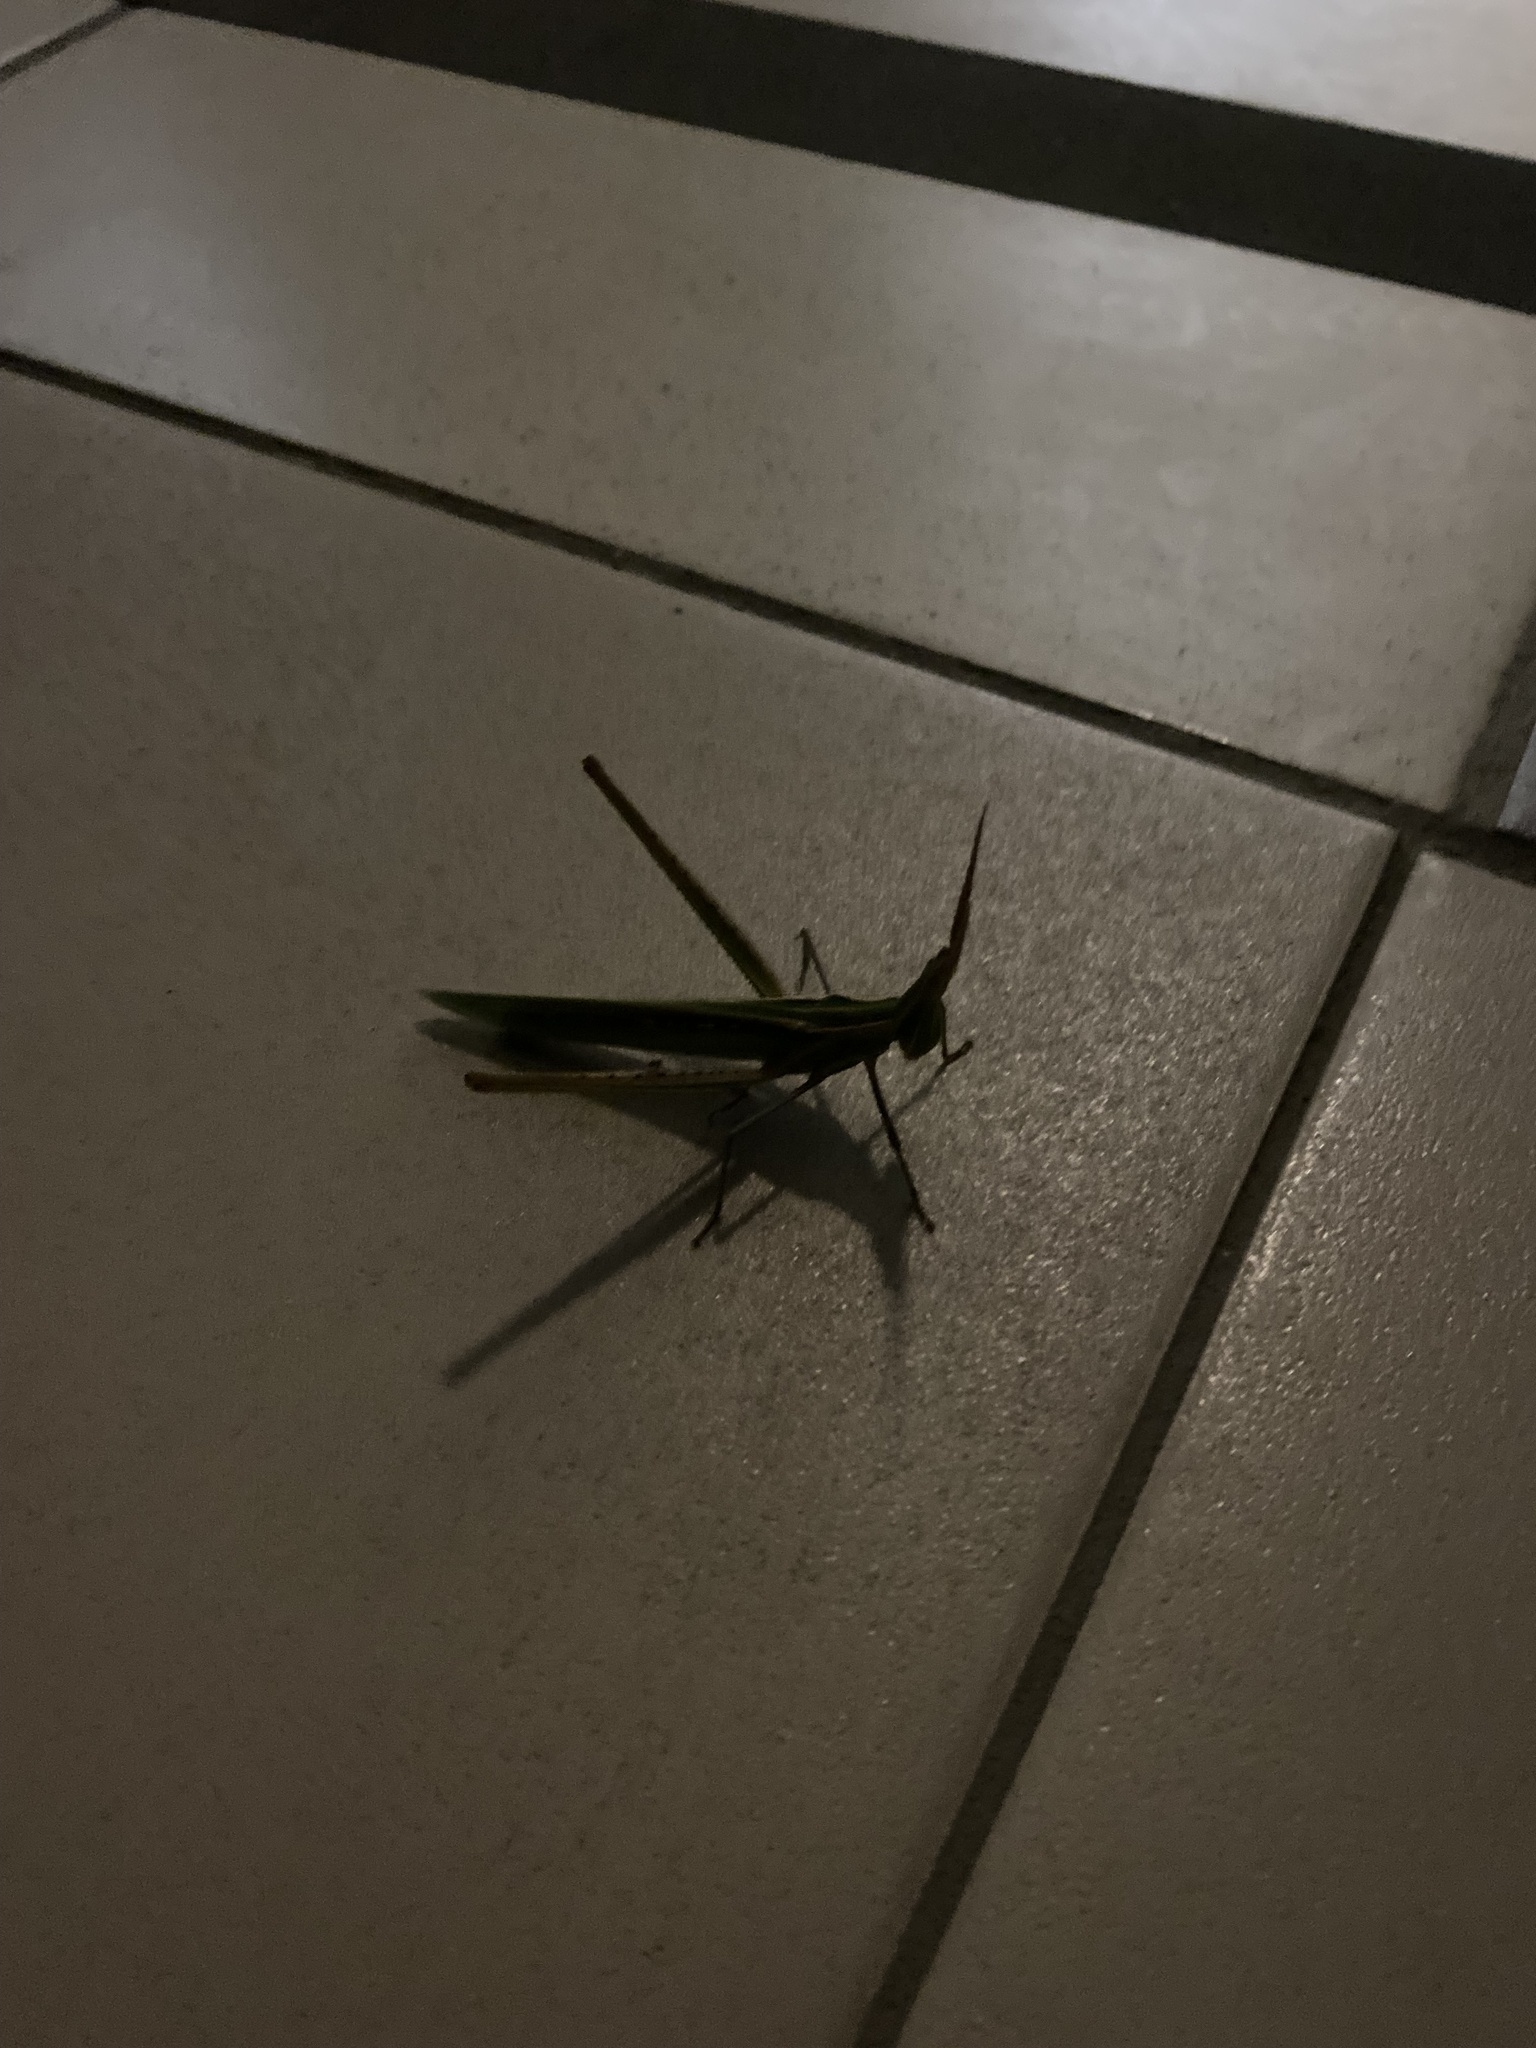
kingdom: Animalia
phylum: Arthropoda
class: Insecta
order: Orthoptera
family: Acrididae
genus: Acrida
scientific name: Acrida ungarica
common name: Common cone-headed grasshopper
